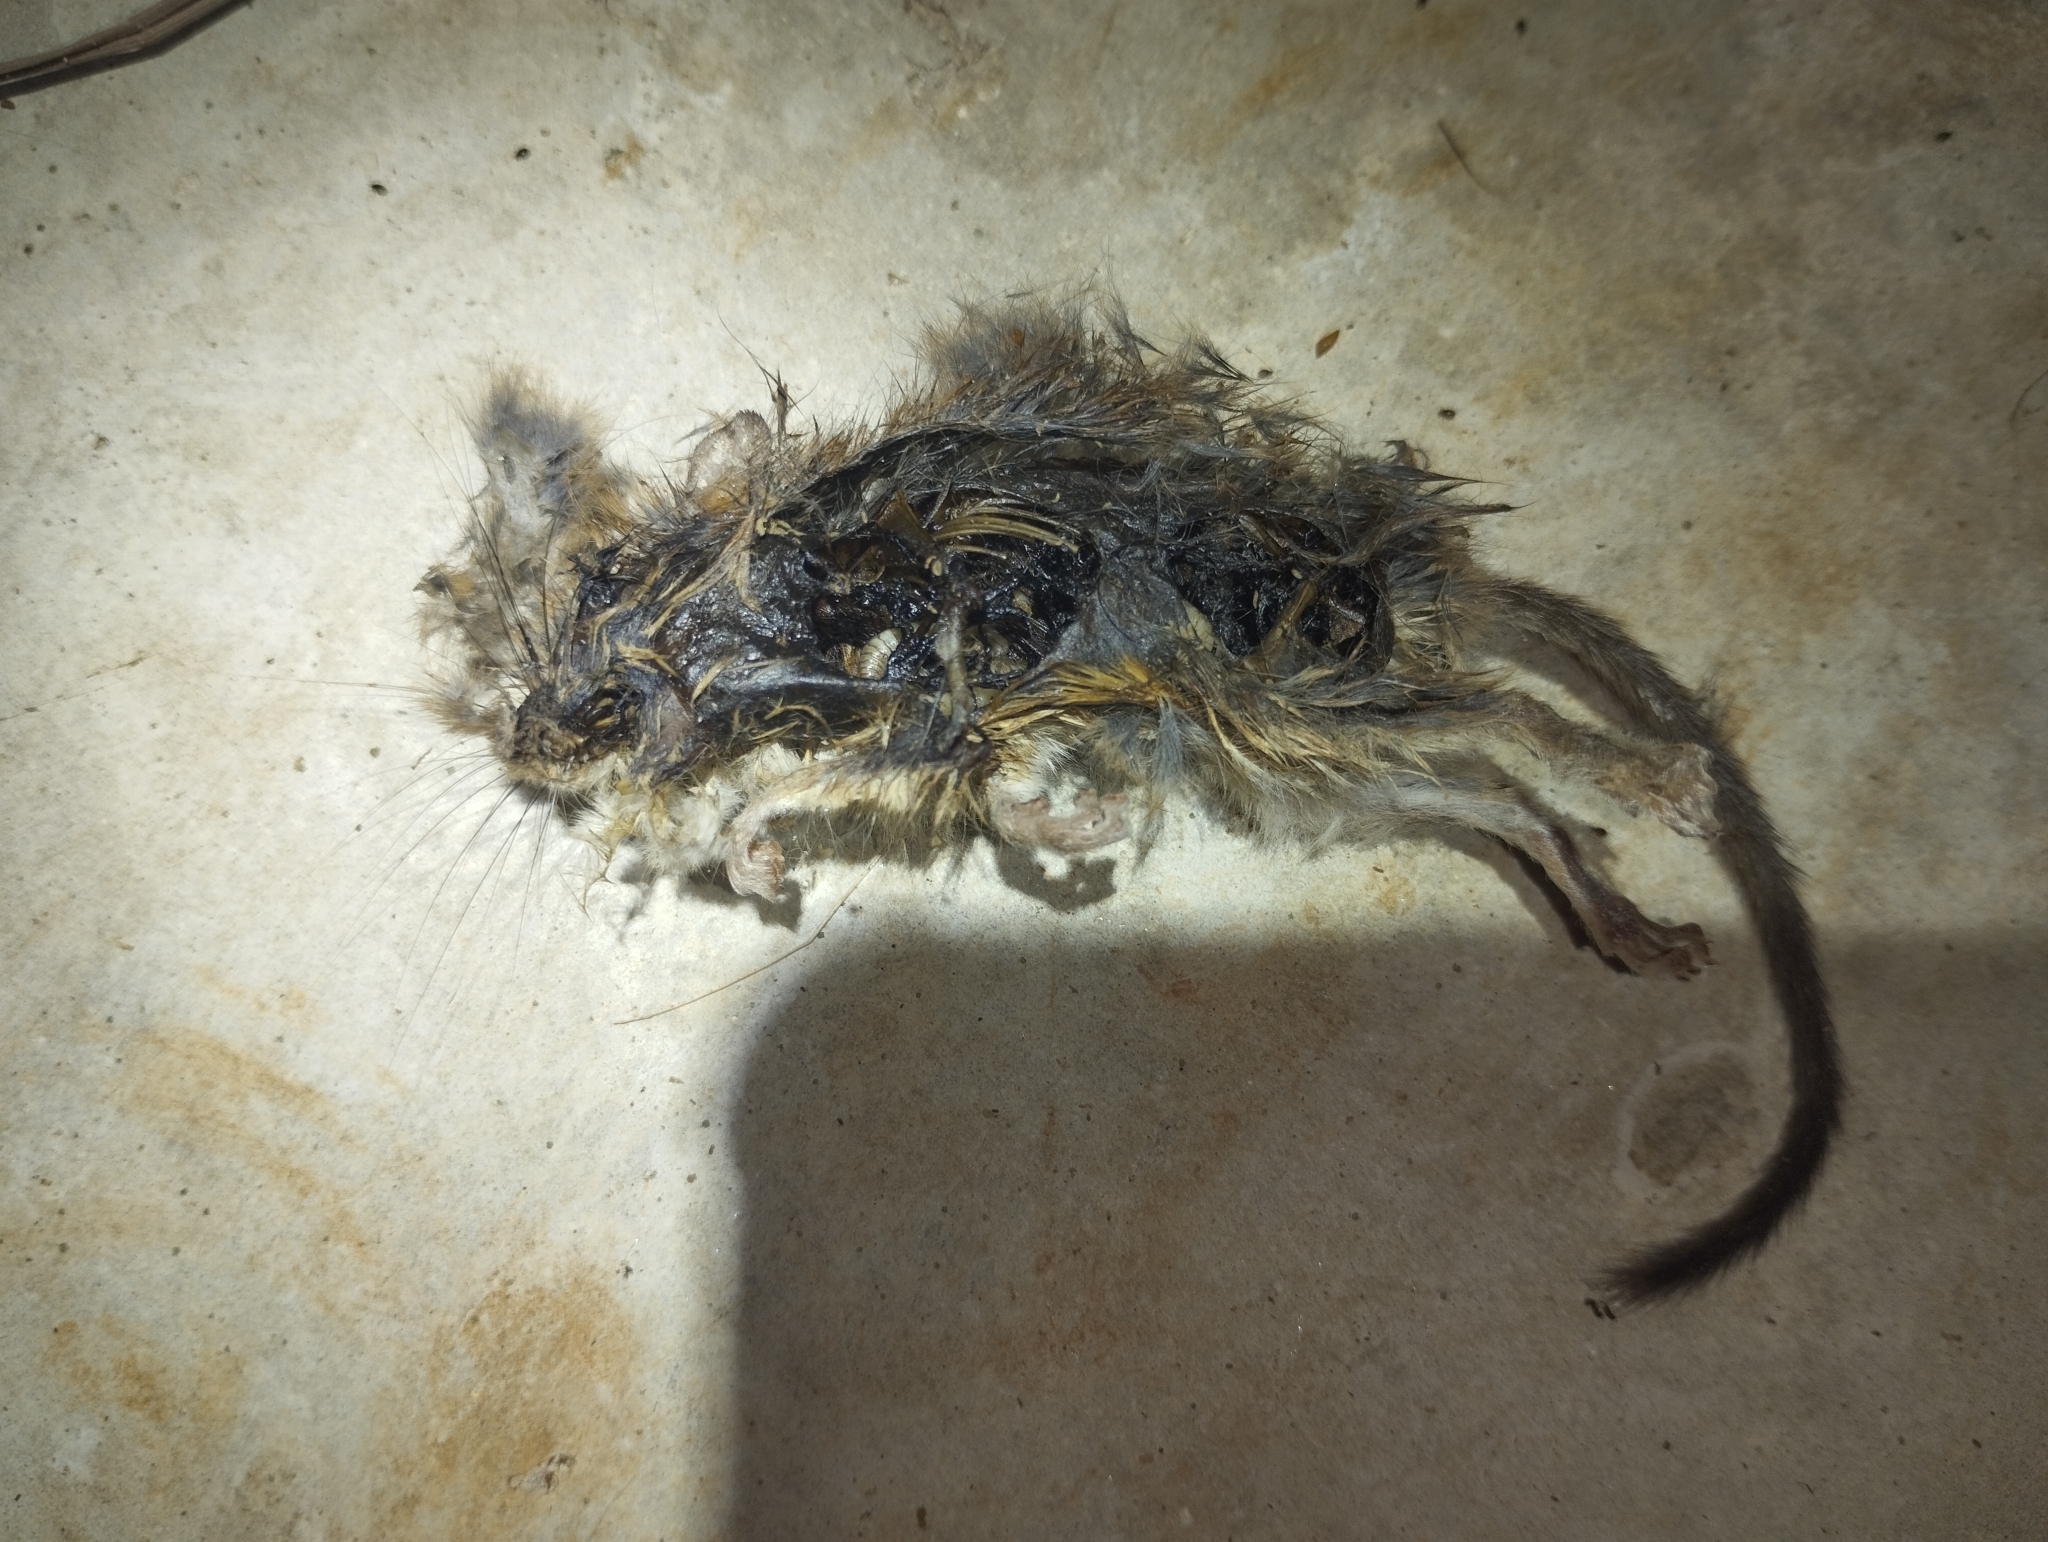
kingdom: Animalia
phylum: Chordata
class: Mammalia
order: Rodentia
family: Cricetidae
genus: Peromyscus
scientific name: Peromyscus leucopus
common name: White-footed deermouse
